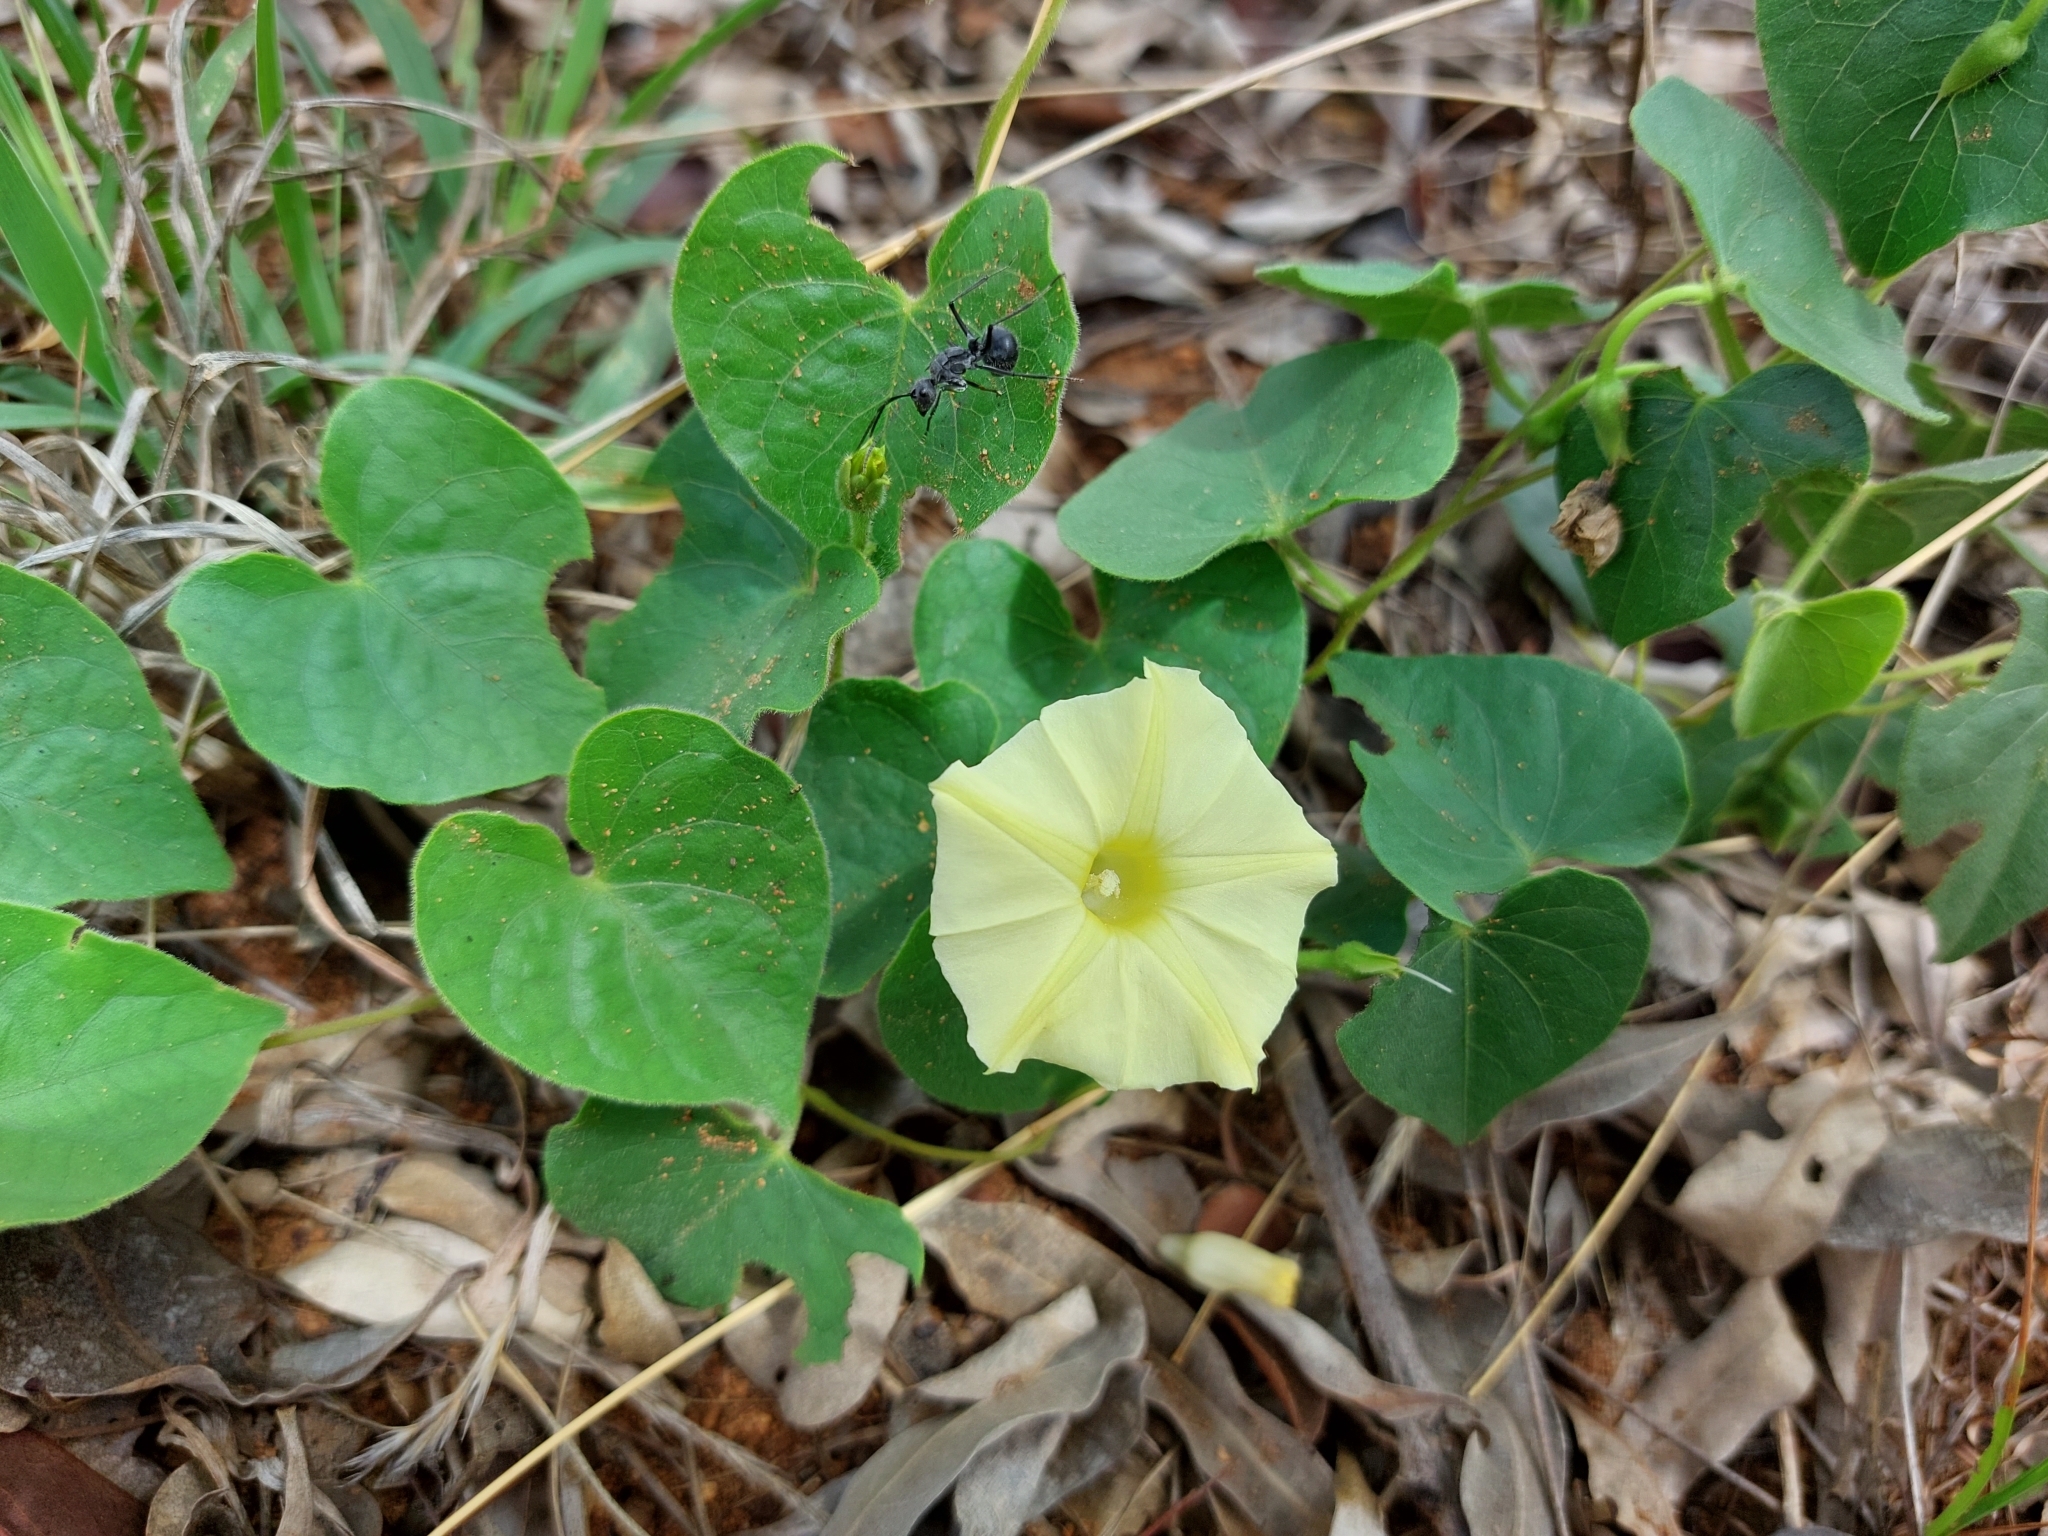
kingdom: Plantae
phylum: Tracheophyta
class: Magnoliopsida
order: Solanales
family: Convolvulaceae
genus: Ipomoea
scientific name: Ipomoea obscura
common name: Obscure morning-glory
